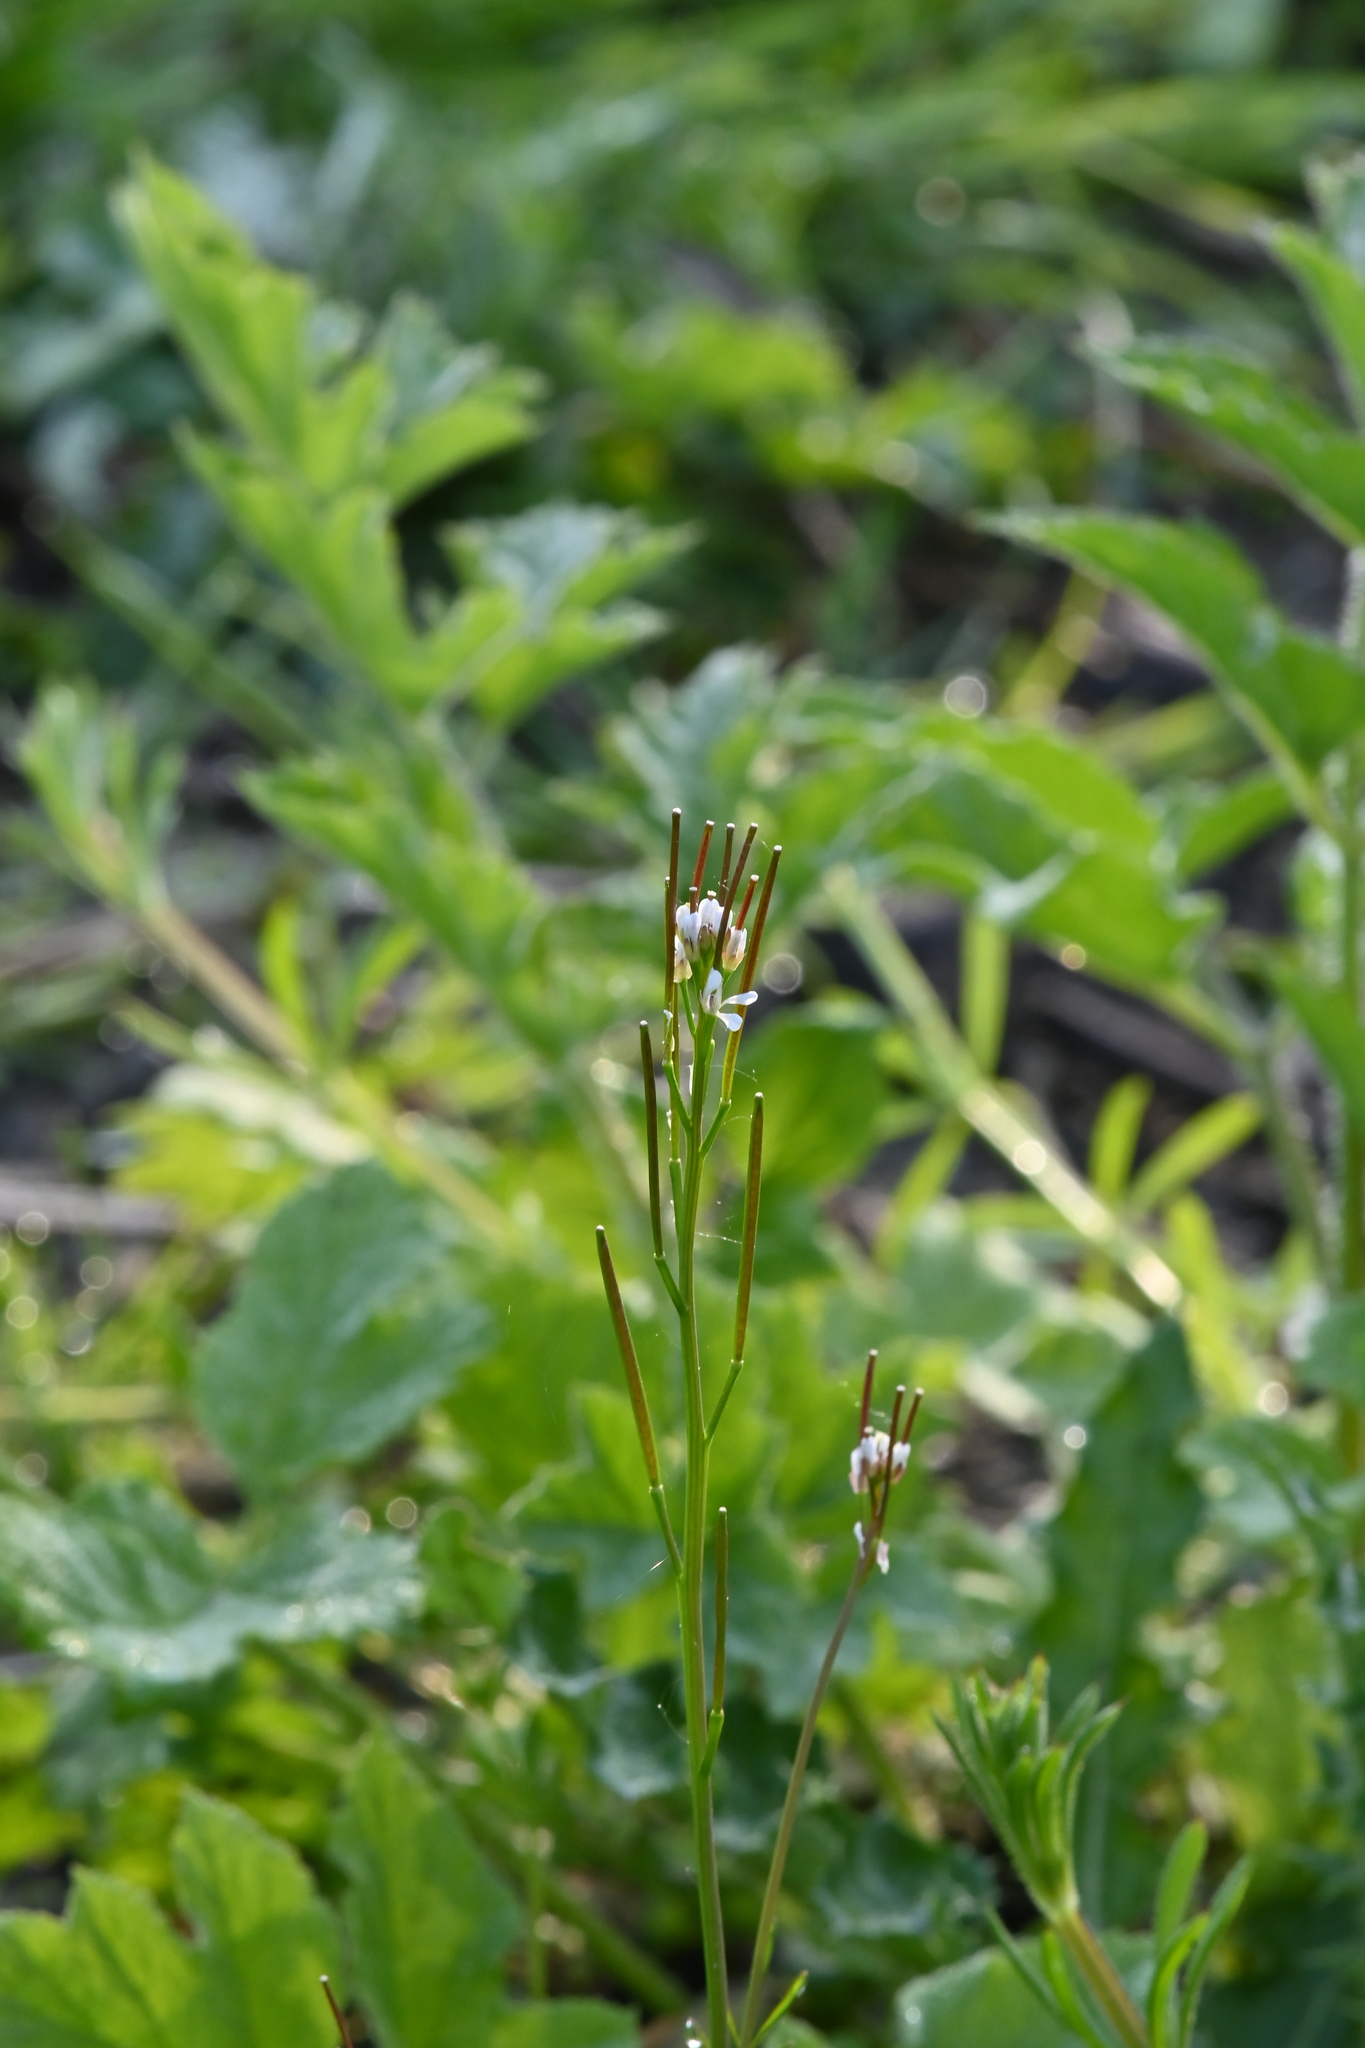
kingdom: Plantae
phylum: Tracheophyta
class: Magnoliopsida
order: Brassicales
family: Brassicaceae
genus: Cardamine
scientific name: Cardamine hirsuta
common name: Hairy bittercress
